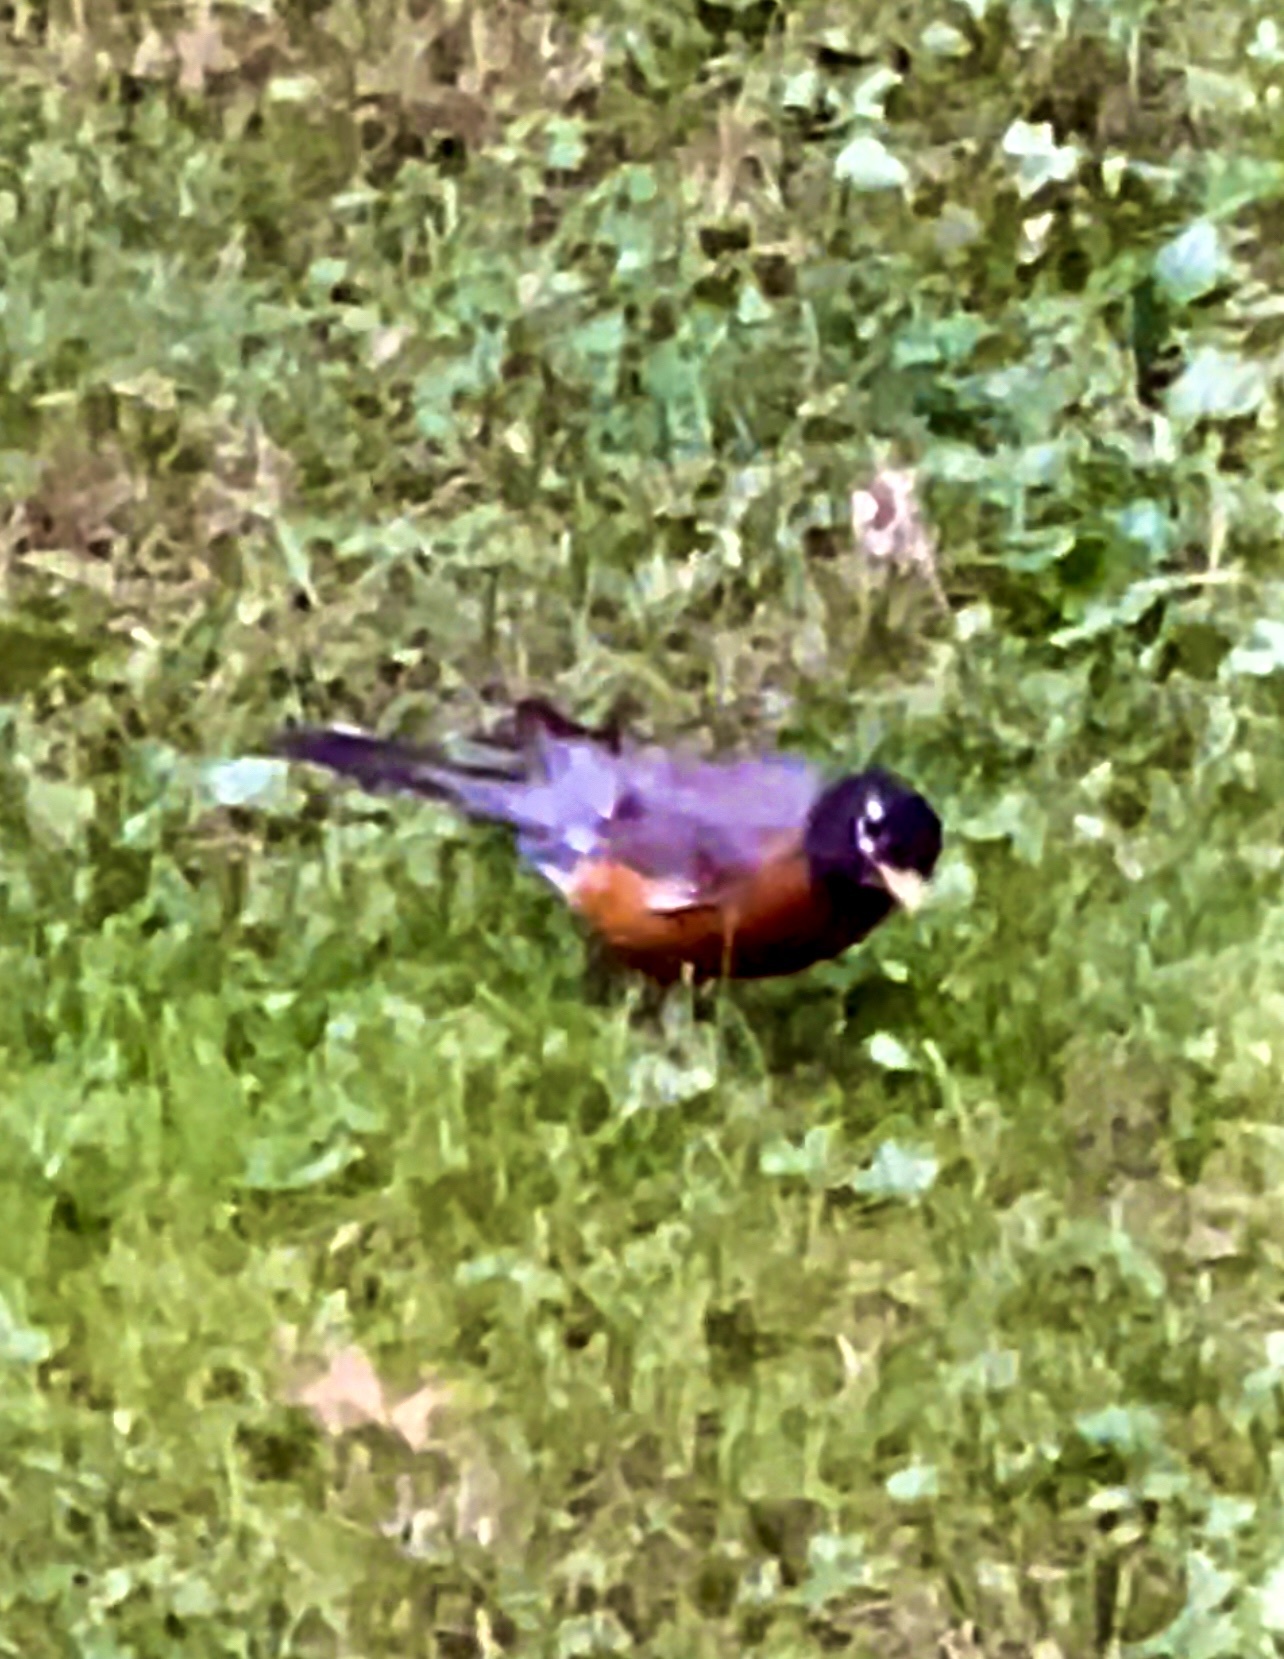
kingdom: Animalia
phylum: Chordata
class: Aves
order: Passeriformes
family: Turdidae
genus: Turdus
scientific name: Turdus migratorius
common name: American robin
